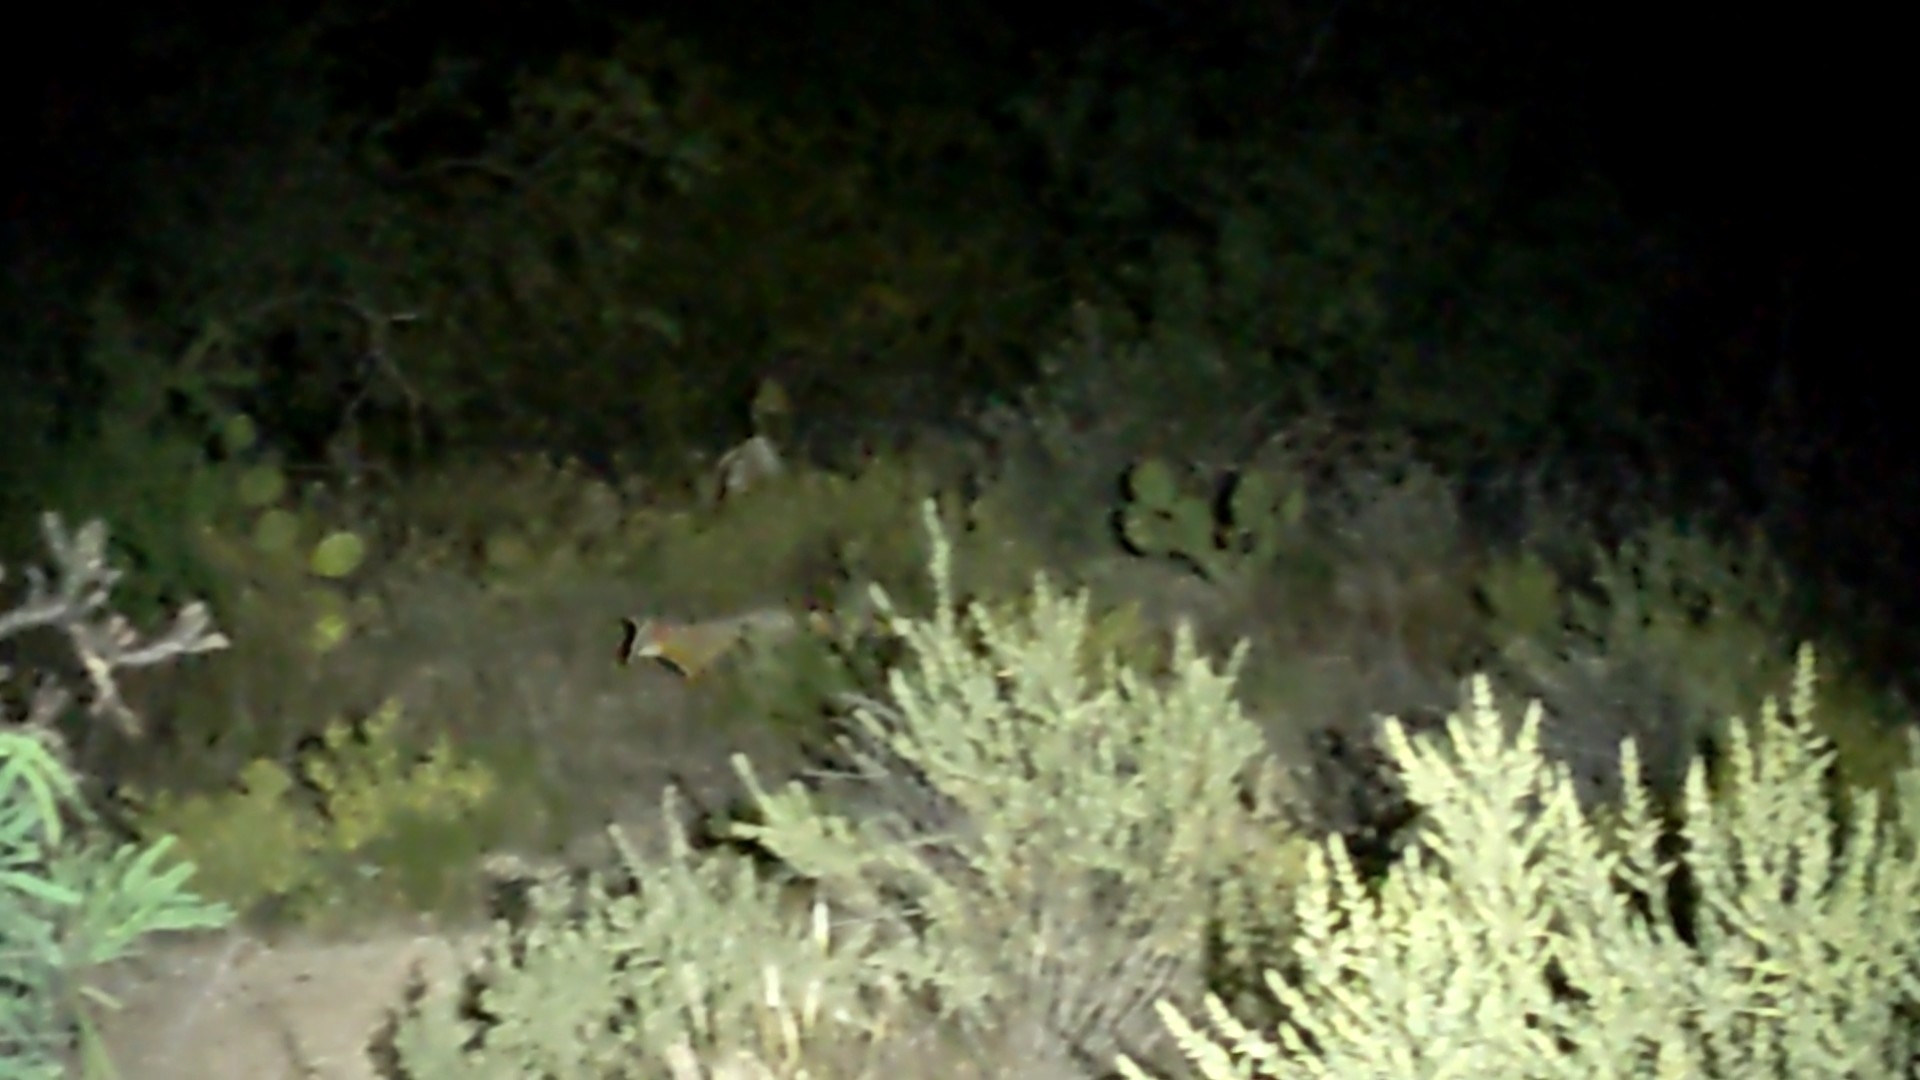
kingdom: Animalia
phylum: Chordata
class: Mammalia
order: Carnivora
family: Canidae
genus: Urocyon
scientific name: Urocyon cinereoargenteus
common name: Gray fox
